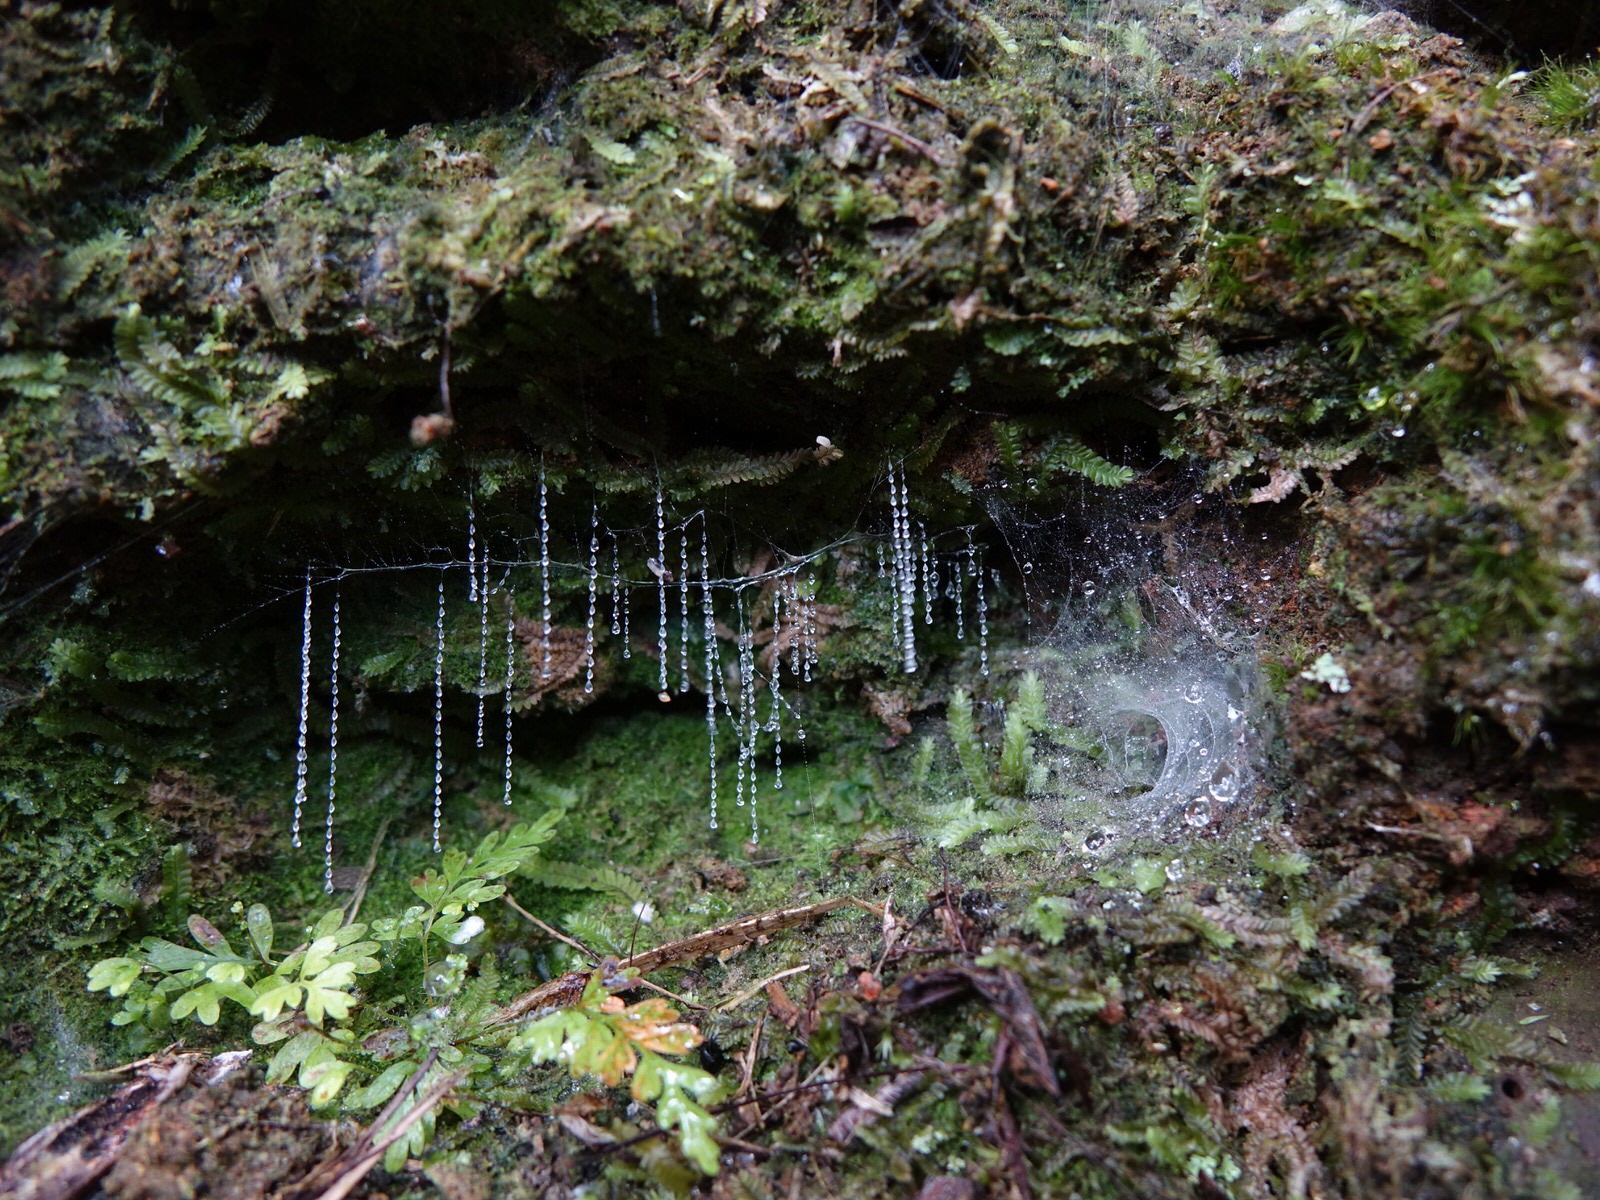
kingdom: Animalia
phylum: Arthropoda
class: Insecta
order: Diptera
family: Keroplatidae
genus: Arachnocampa
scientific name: Arachnocampa luminosa
